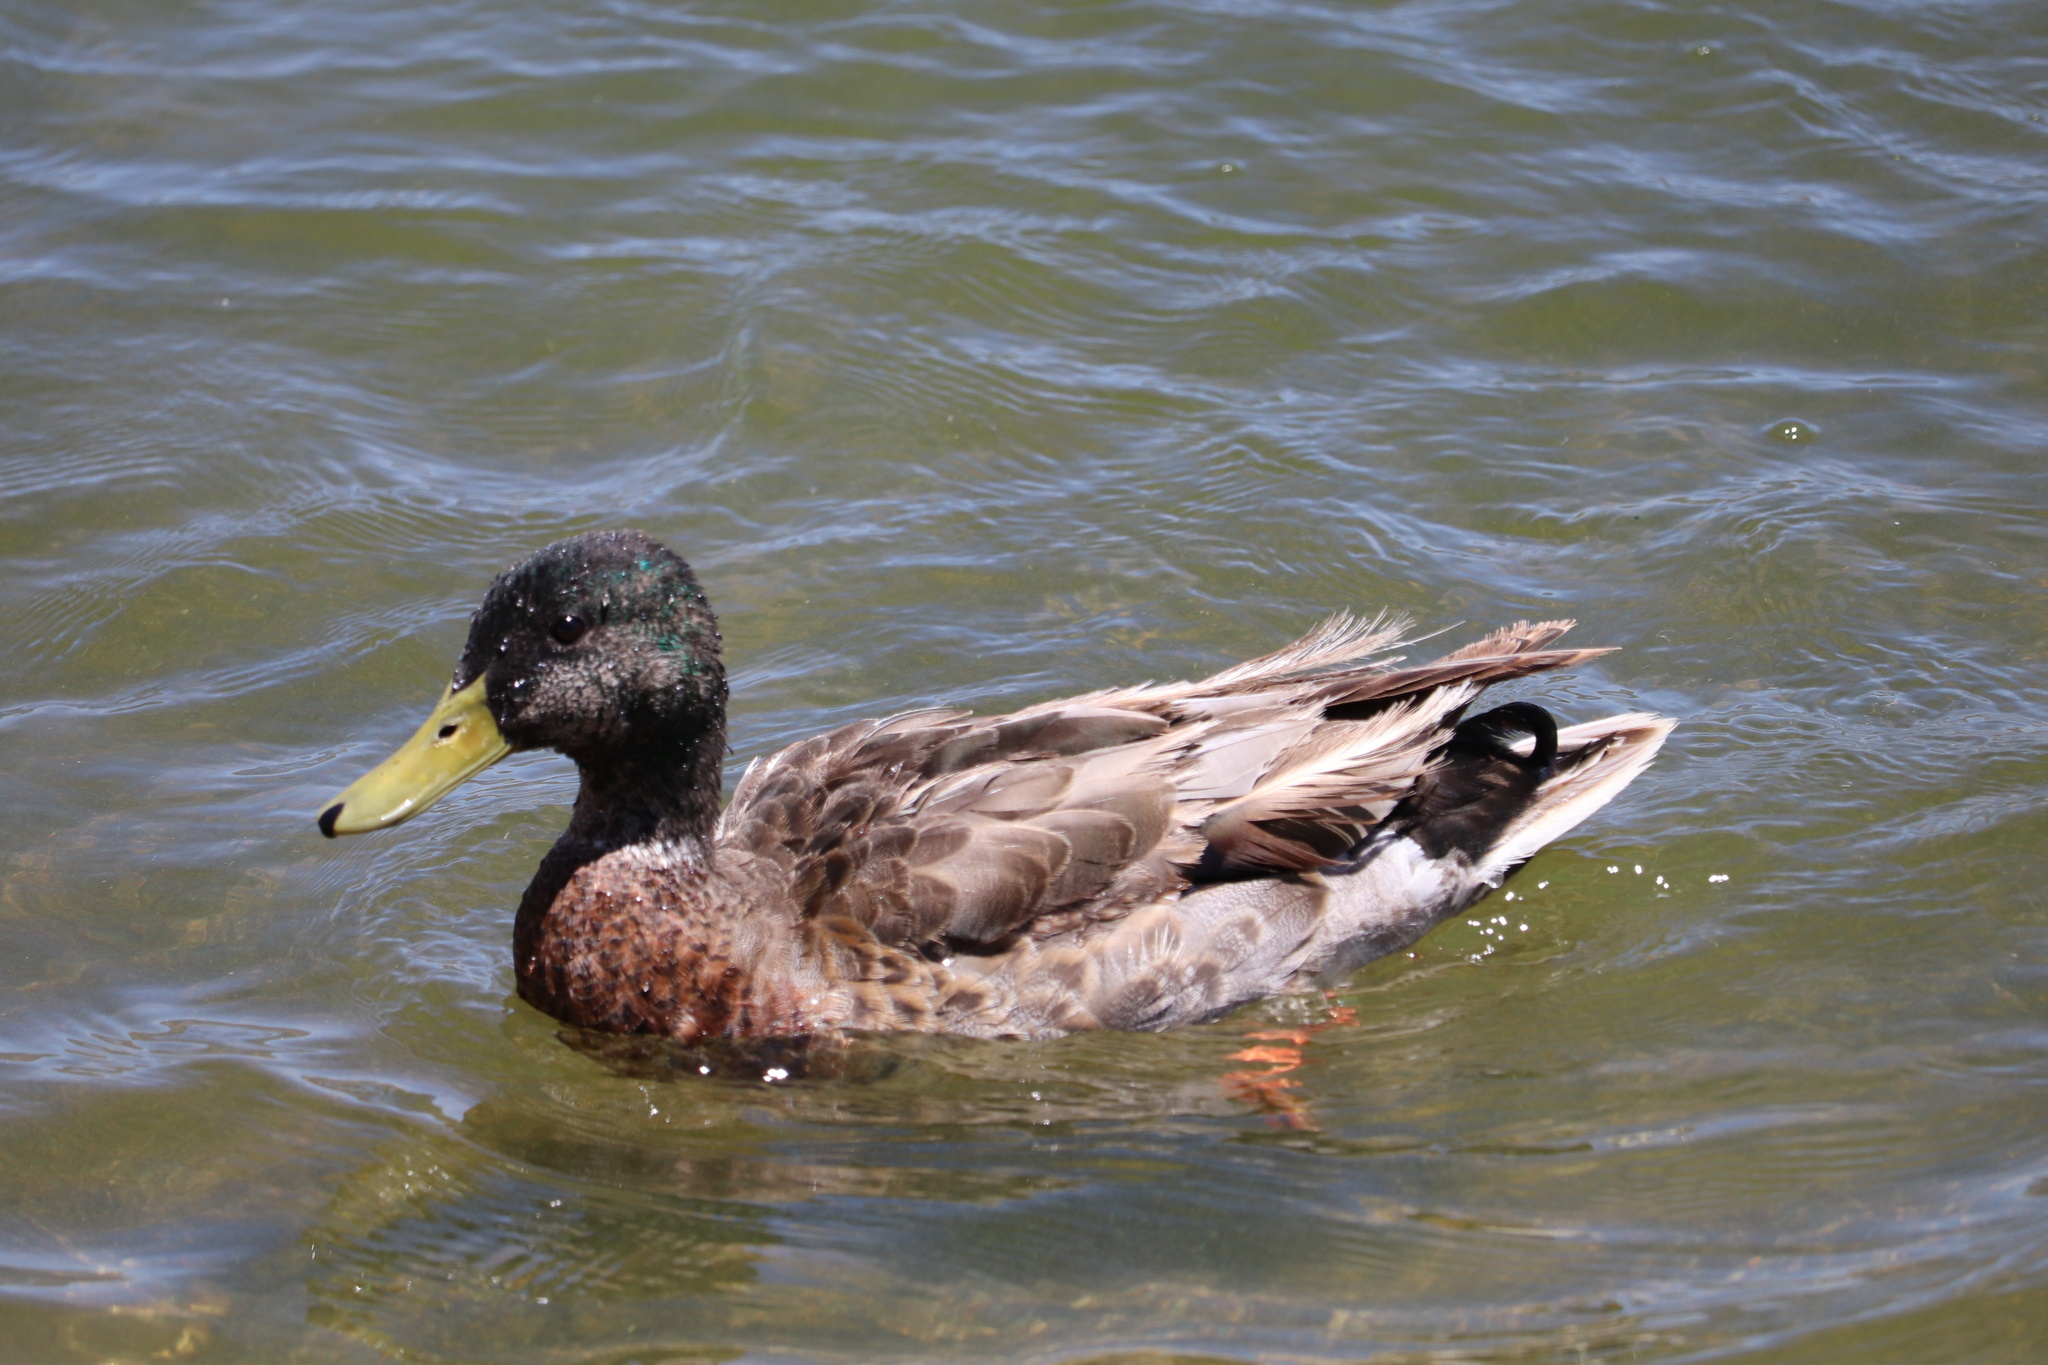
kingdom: Animalia
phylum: Chordata
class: Aves
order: Anseriformes
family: Anatidae
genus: Anas
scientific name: Anas platyrhynchos
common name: Mallard
